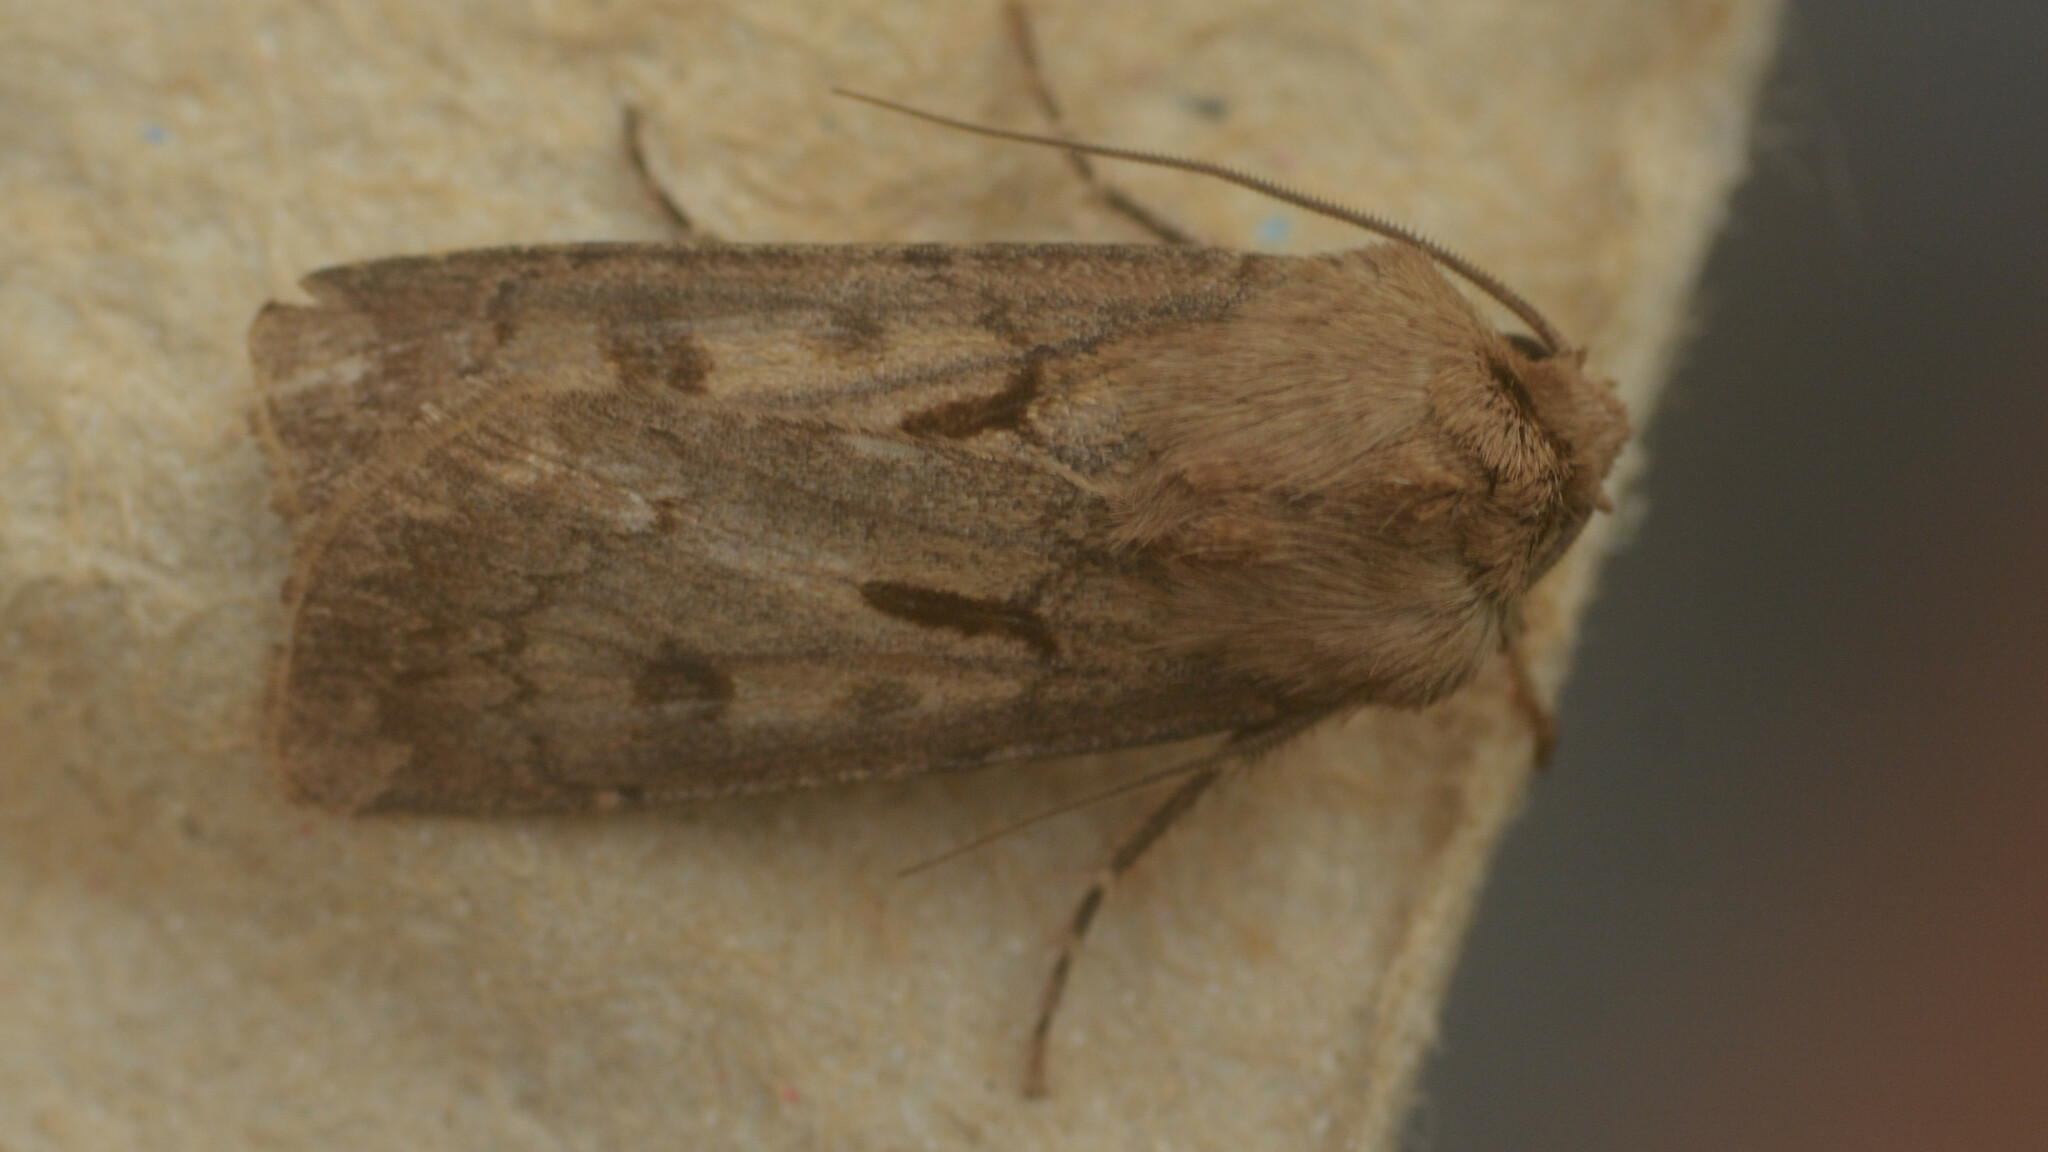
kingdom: Animalia
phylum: Arthropoda
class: Insecta
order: Lepidoptera
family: Noctuidae
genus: Agrotis
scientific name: Agrotis exclamationis
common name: Heart and dart
